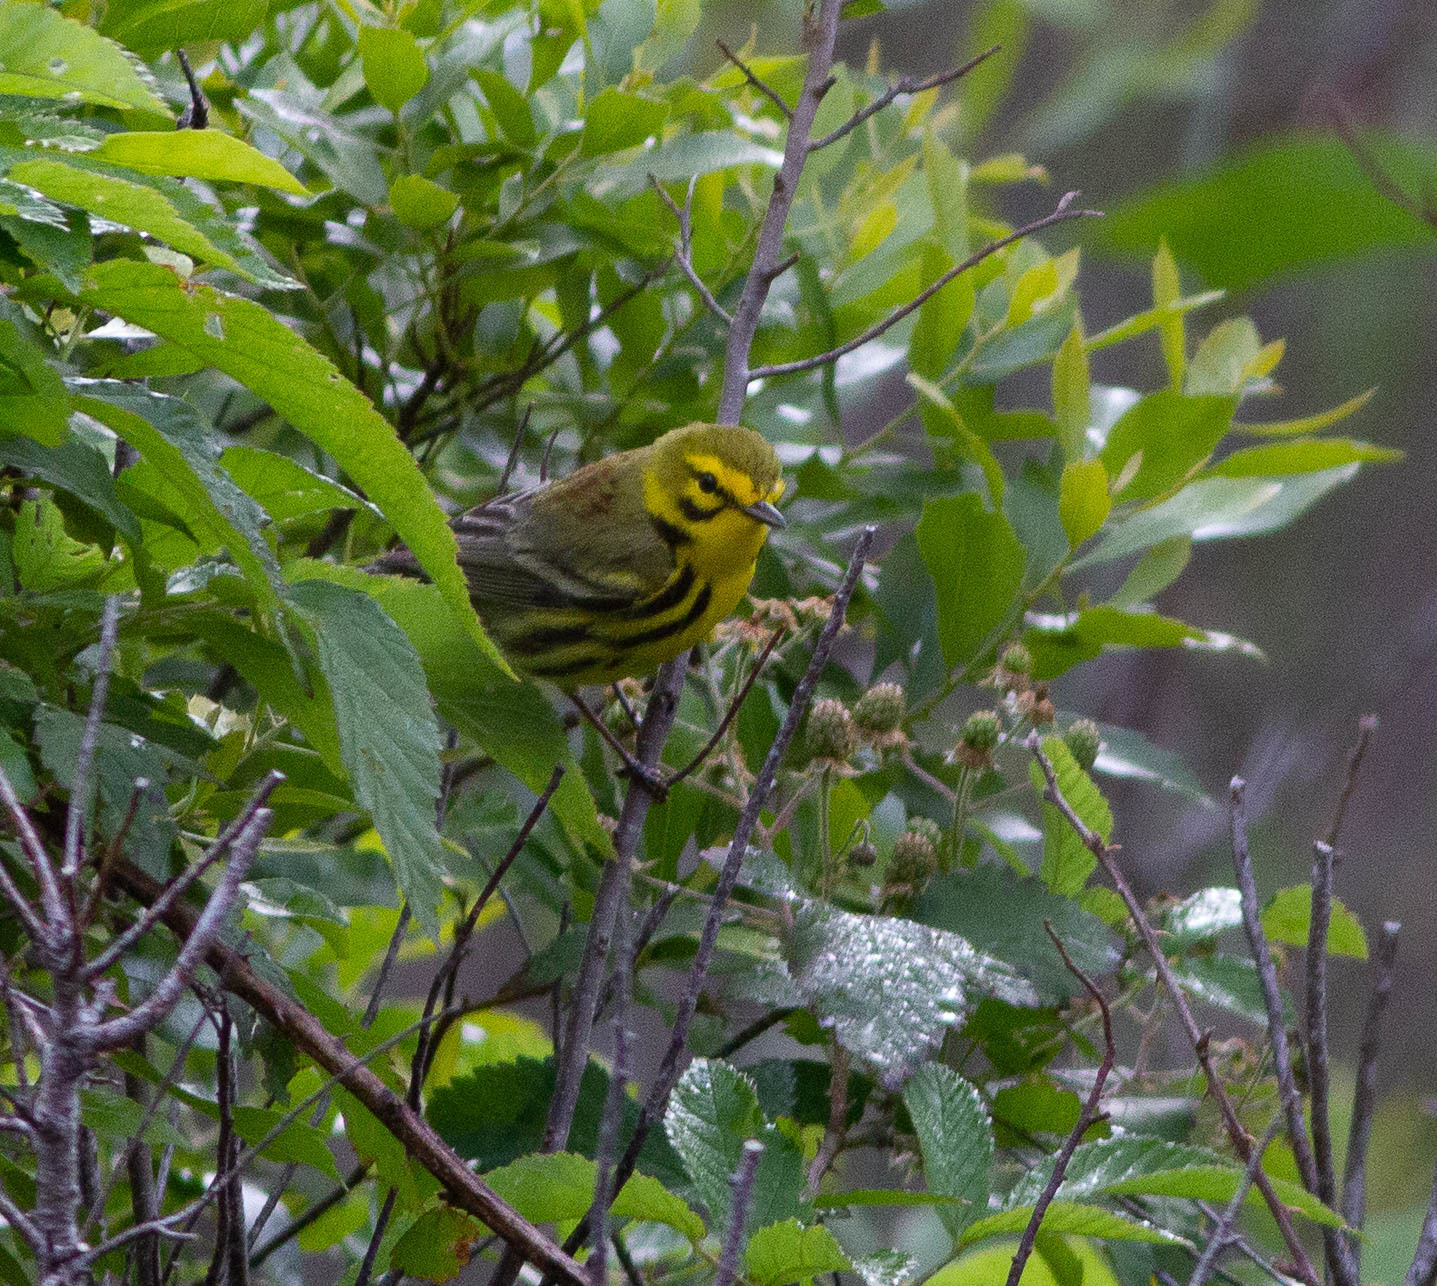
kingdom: Animalia
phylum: Chordata
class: Aves
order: Passeriformes
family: Parulidae
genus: Setophaga
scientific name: Setophaga discolor
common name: Prairie warbler
